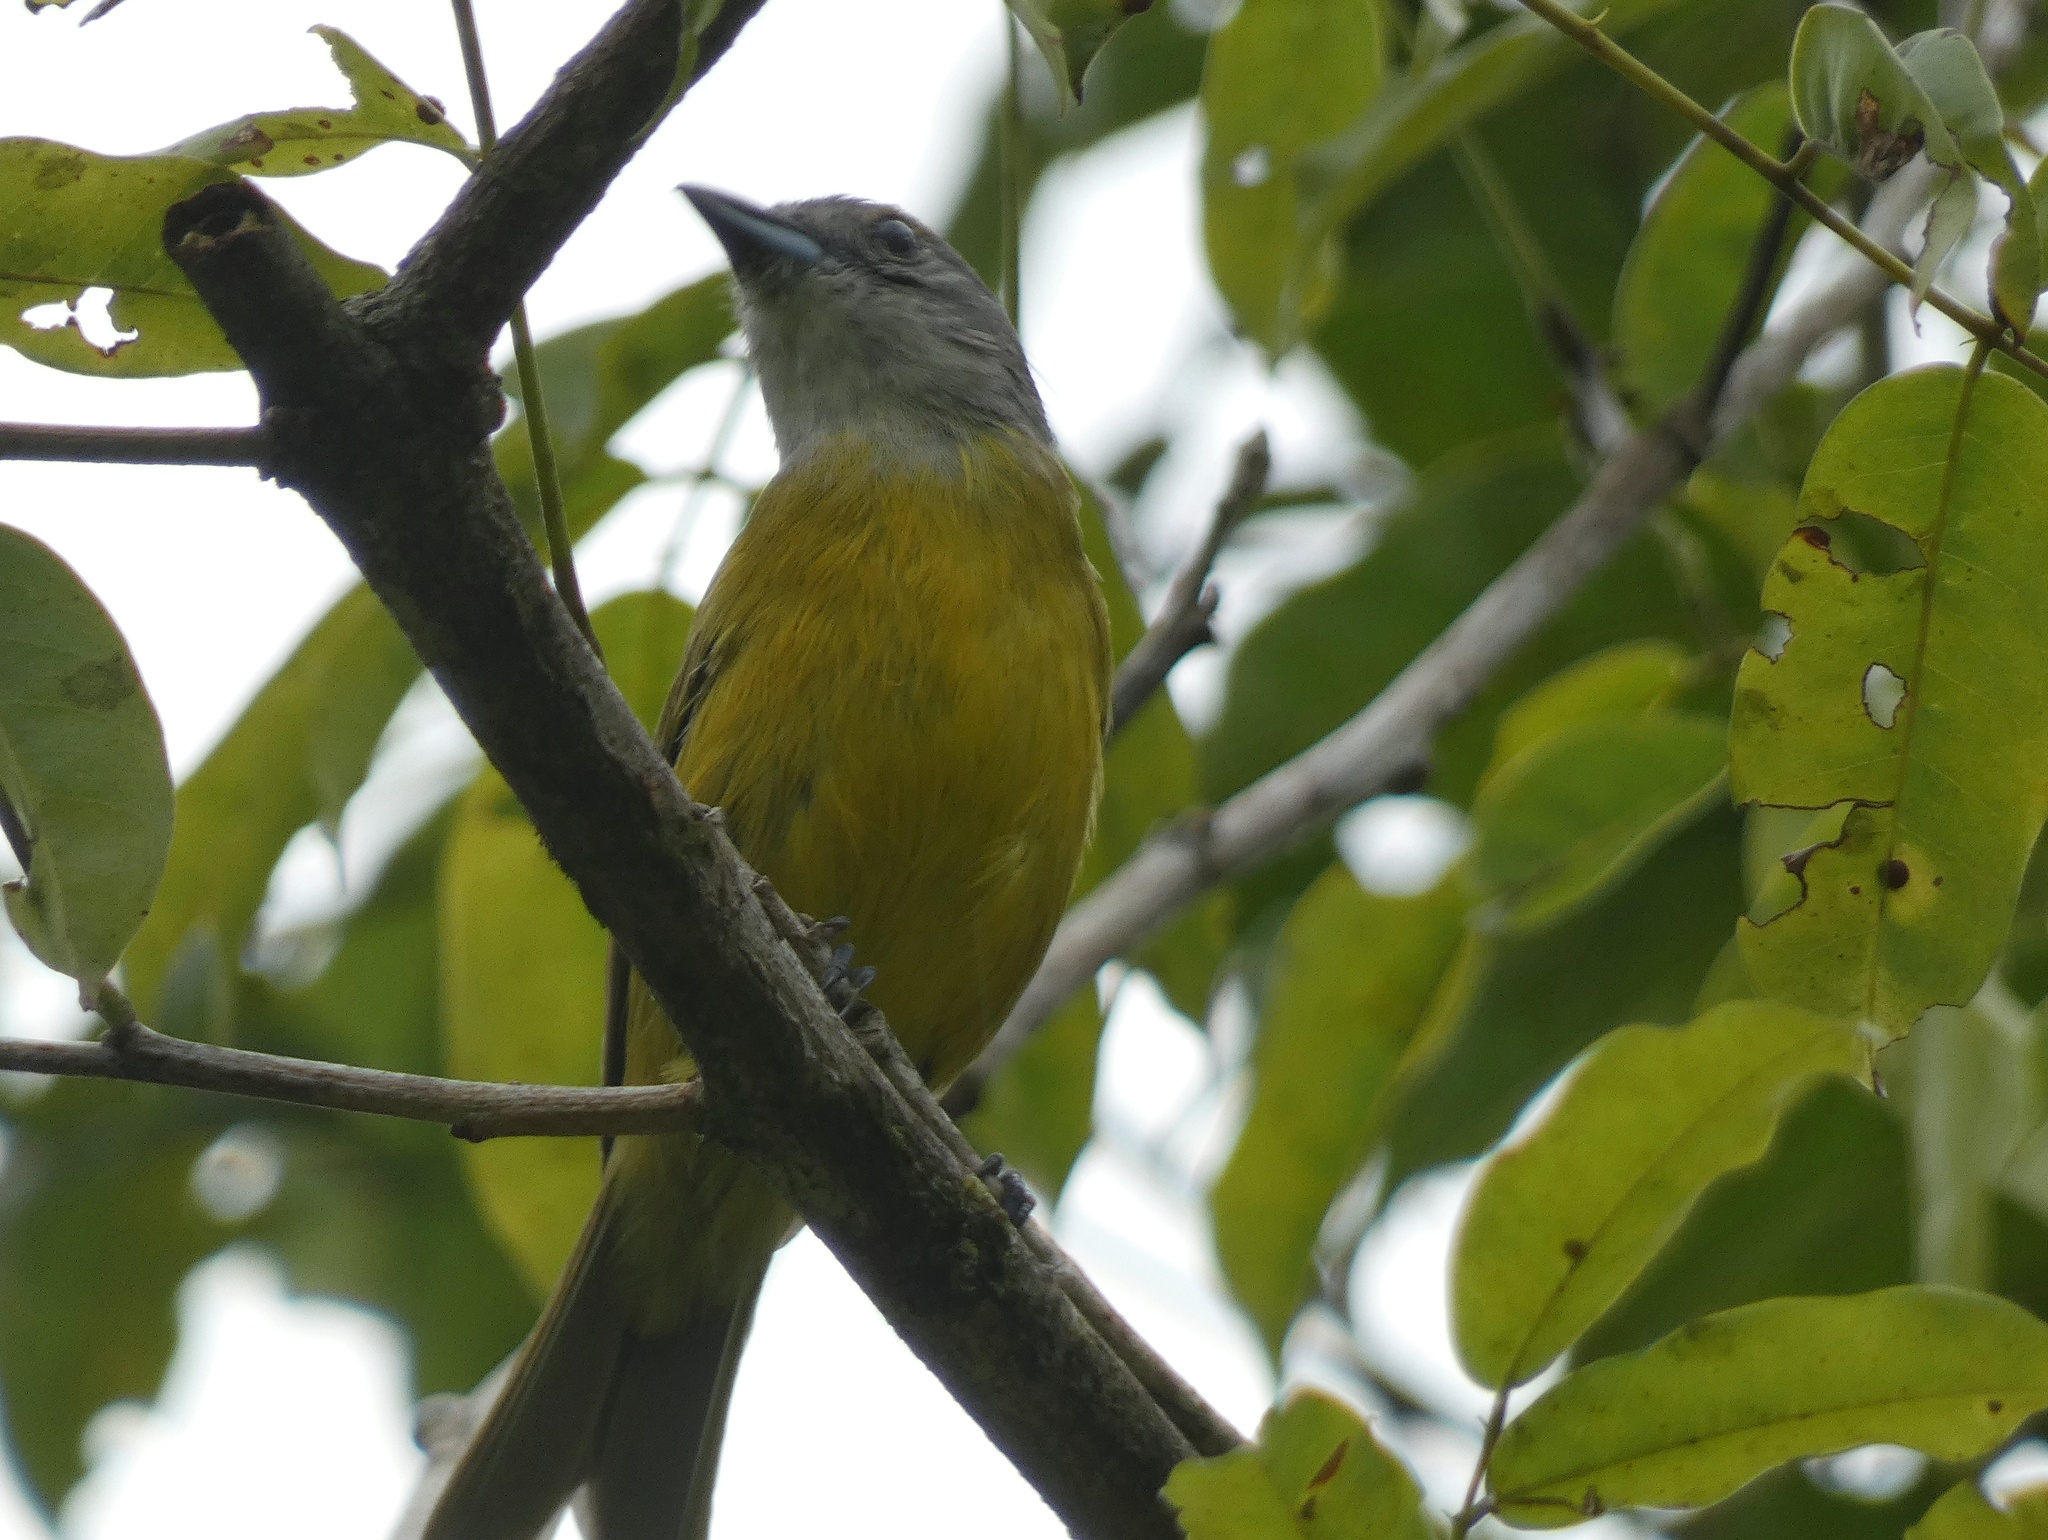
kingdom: Animalia
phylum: Chordata
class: Aves
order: Passeriformes
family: Thraupidae
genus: Loriotus
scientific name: Loriotus luctuosus
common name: White-shouldered tanager
